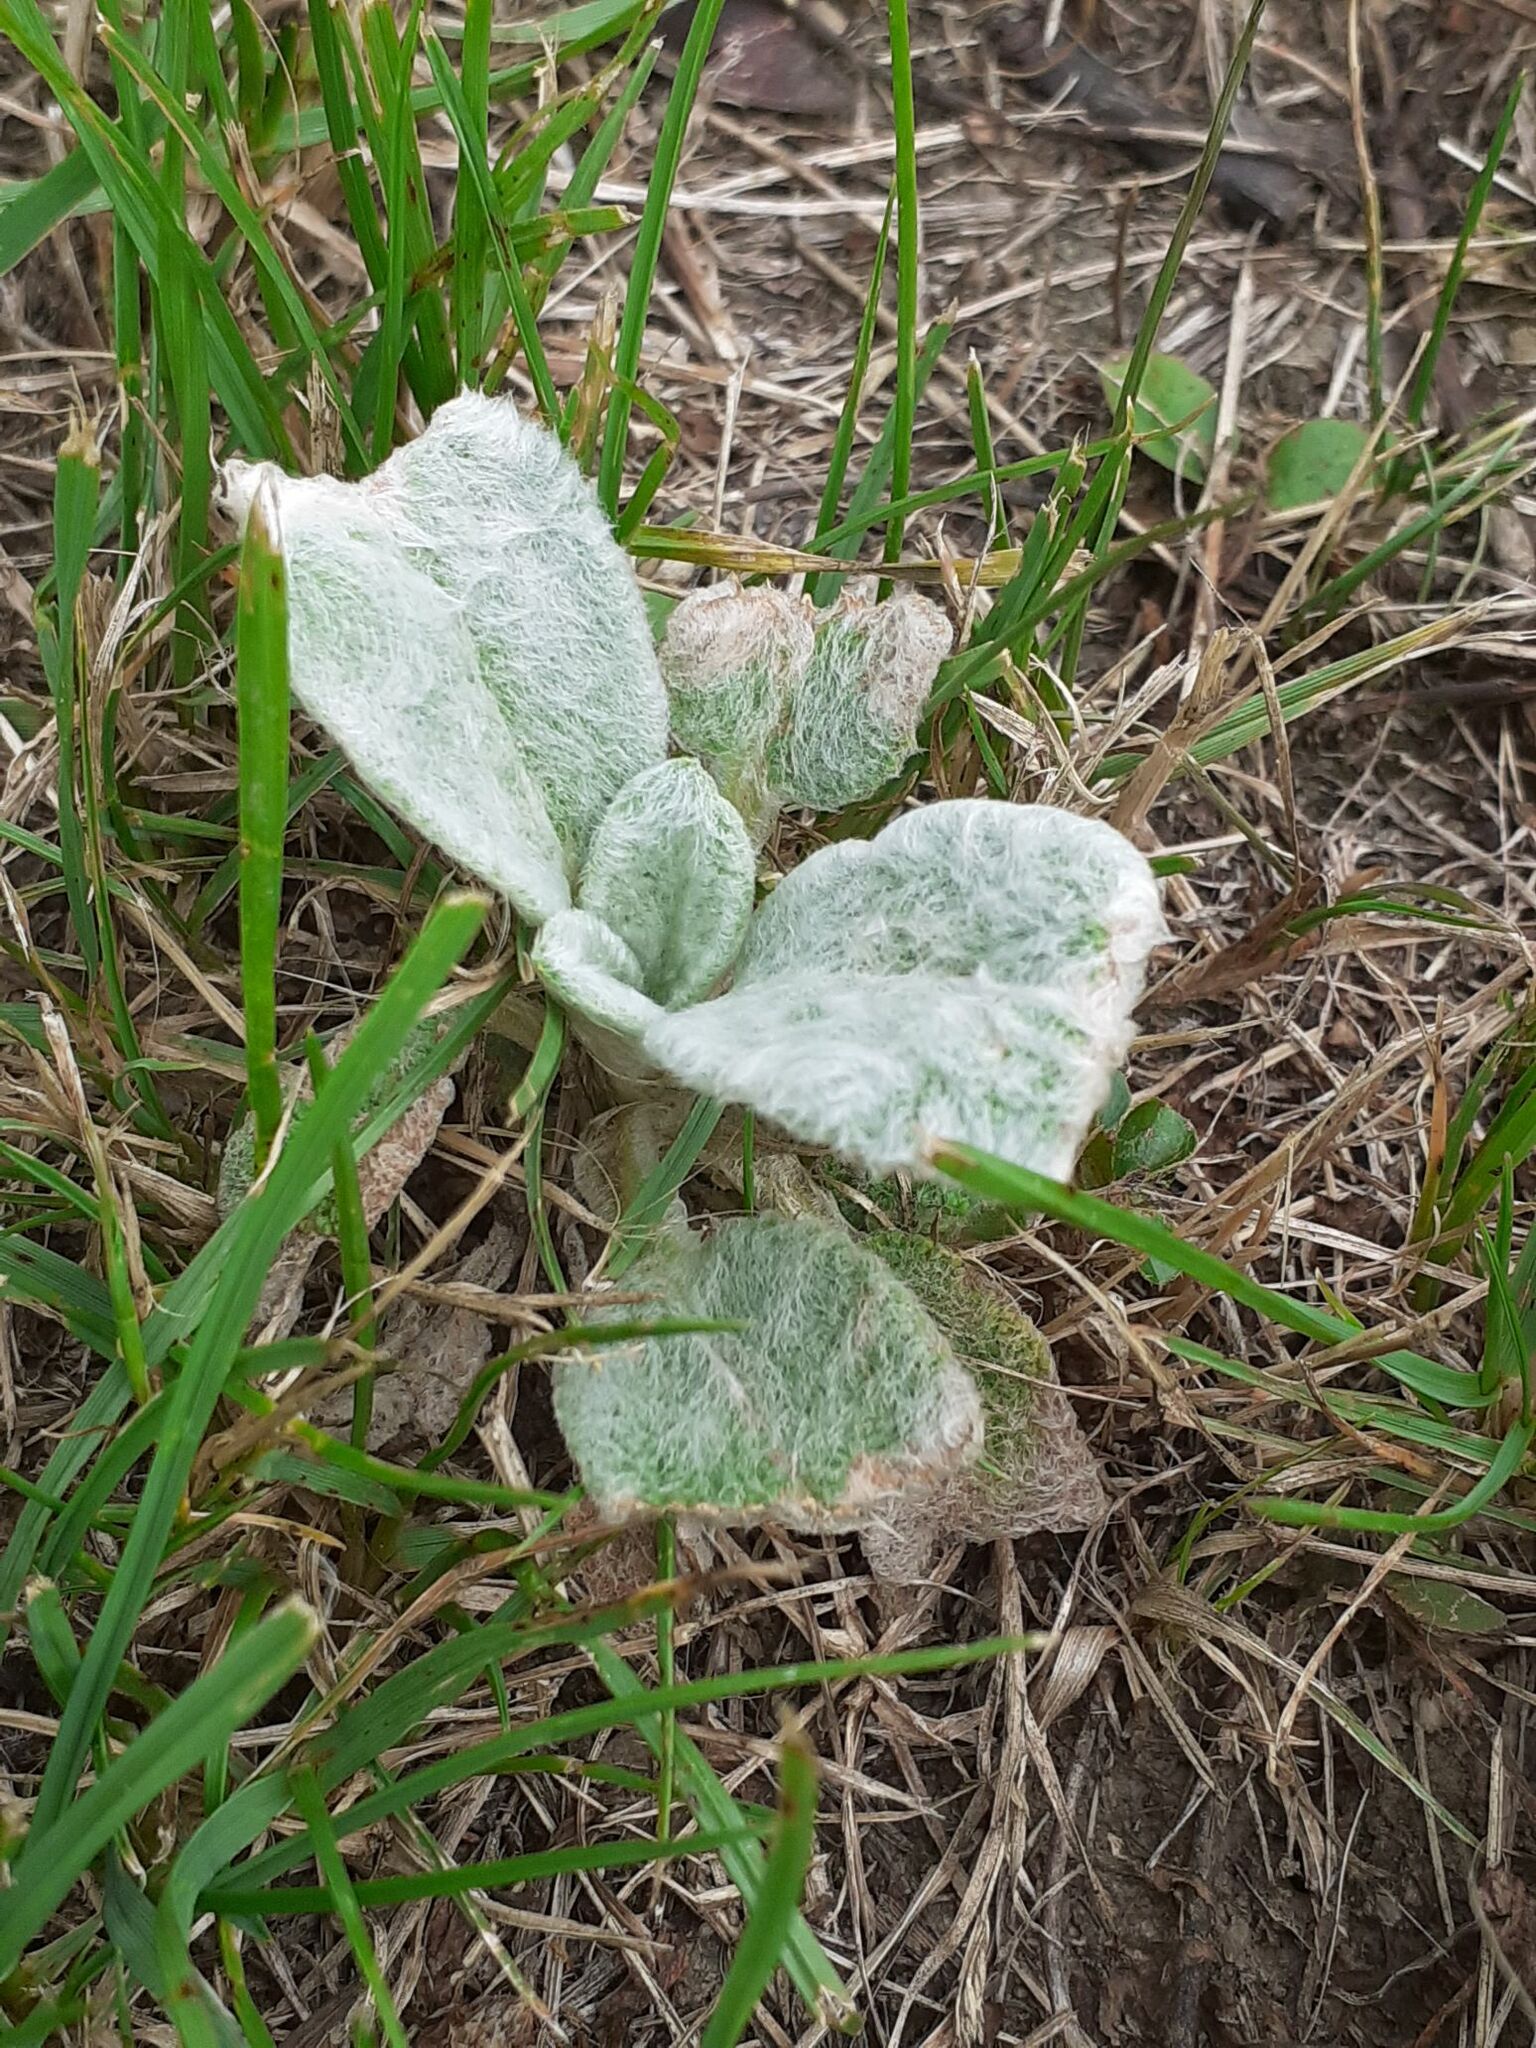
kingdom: Plantae
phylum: Tracheophyta
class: Magnoliopsida
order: Lamiales
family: Lamiaceae
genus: Stachys
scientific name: Stachys byzantina
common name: Lamb's-ear
